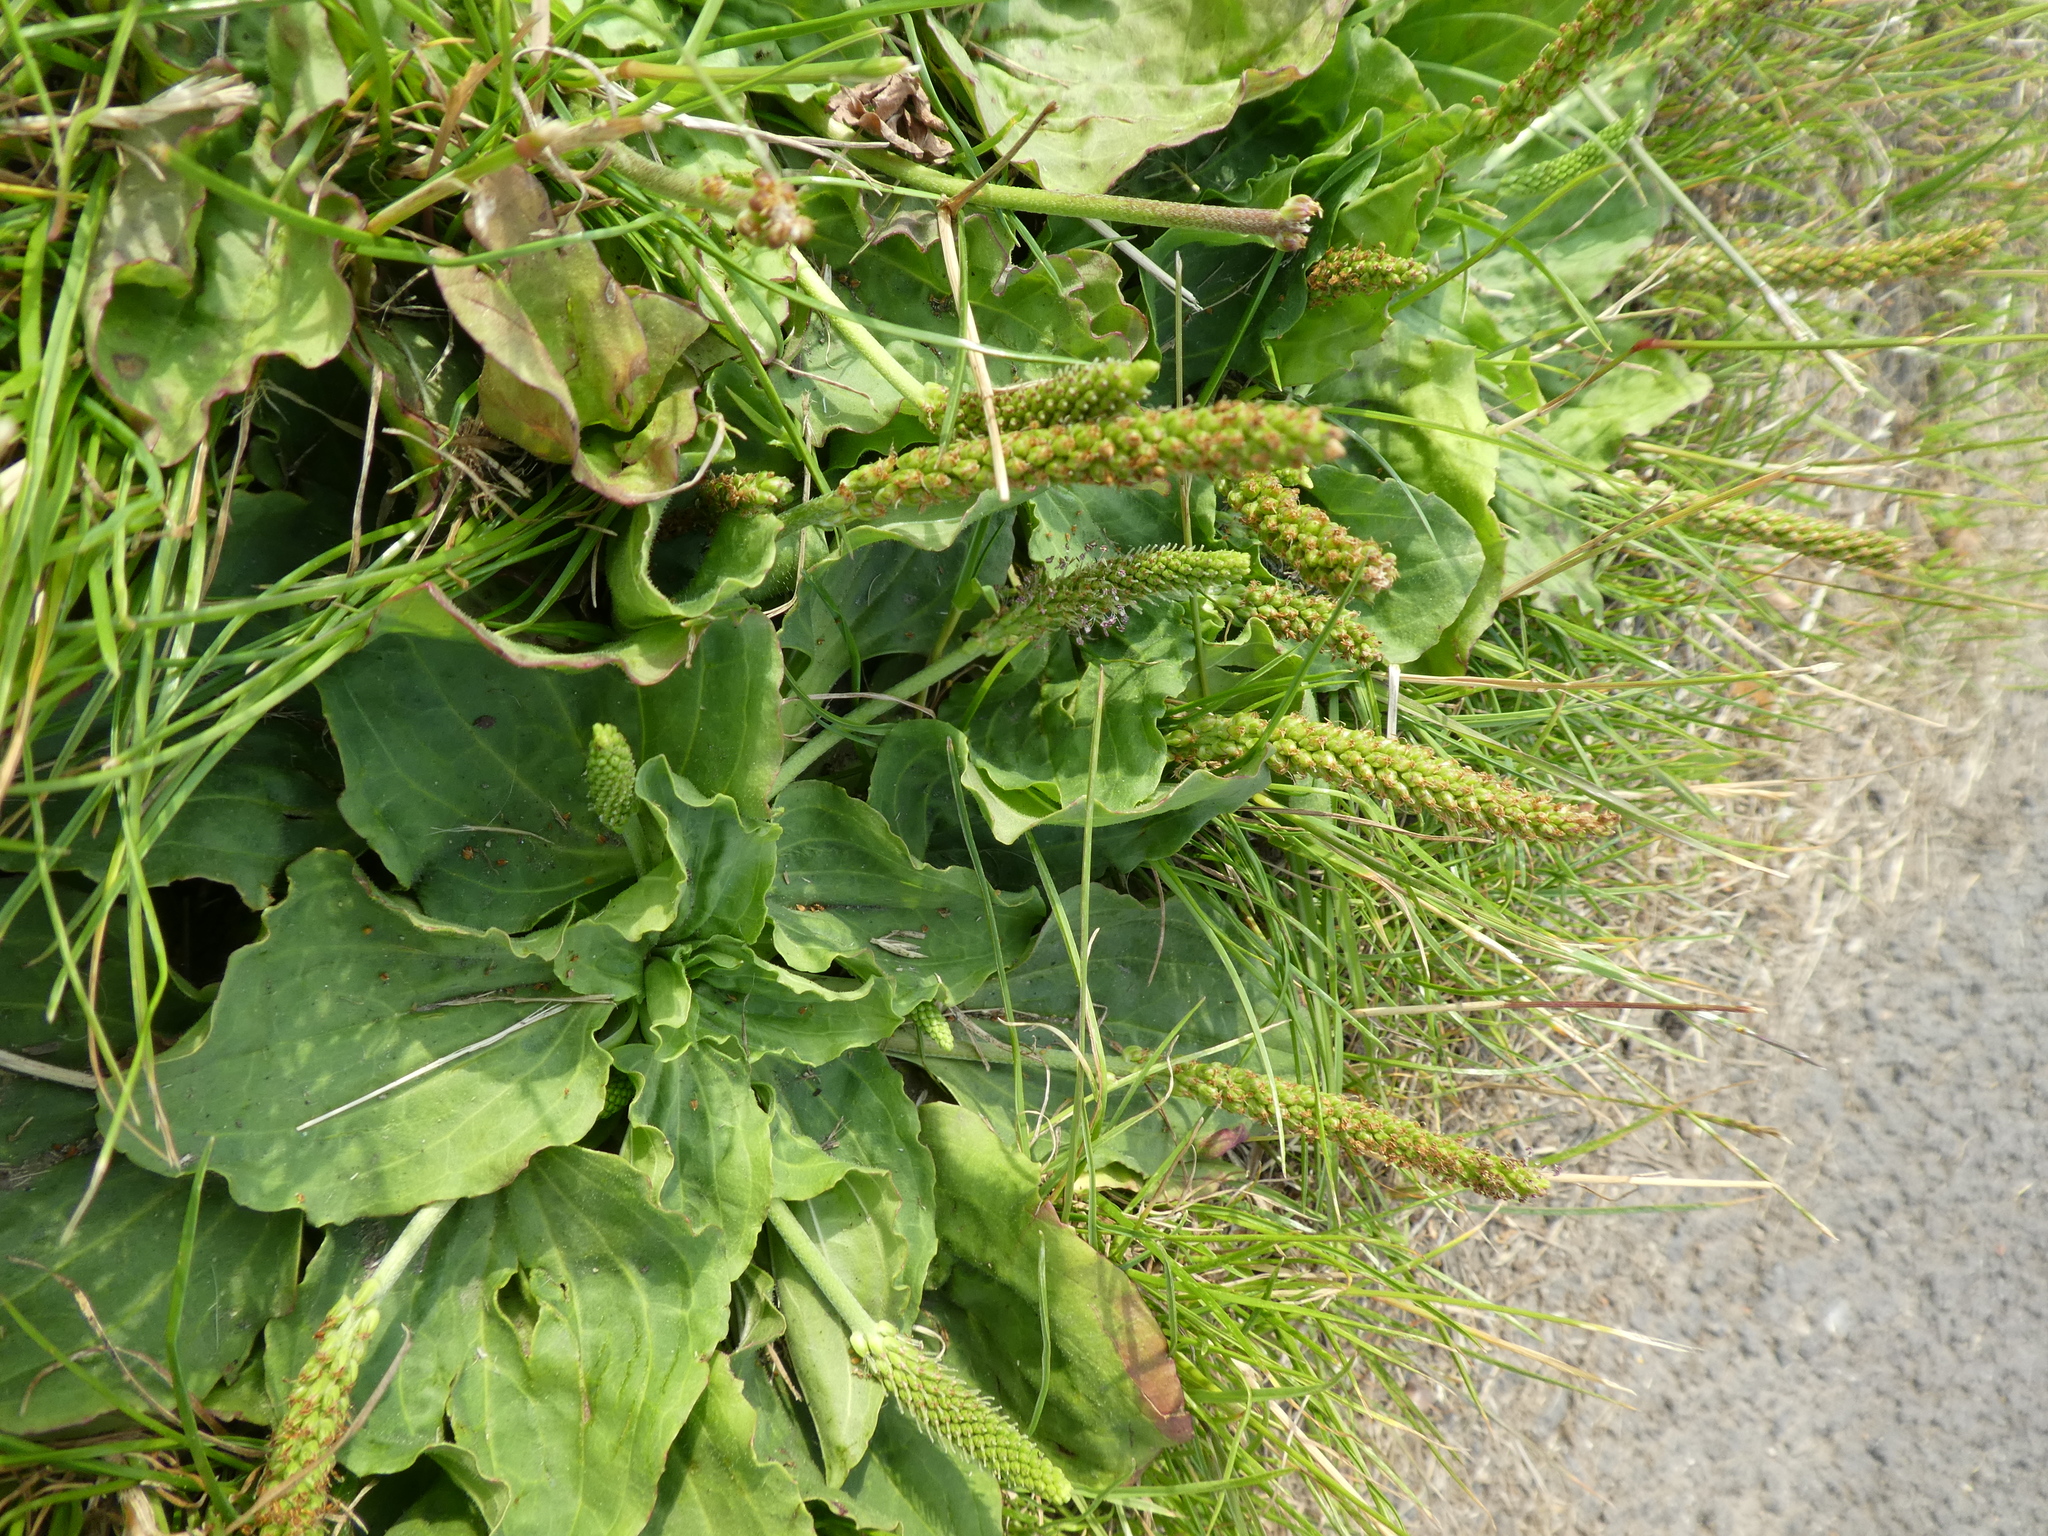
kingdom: Plantae
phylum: Tracheophyta
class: Magnoliopsida
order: Lamiales
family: Plantaginaceae
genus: Plantago
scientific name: Plantago major
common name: Common plantain
